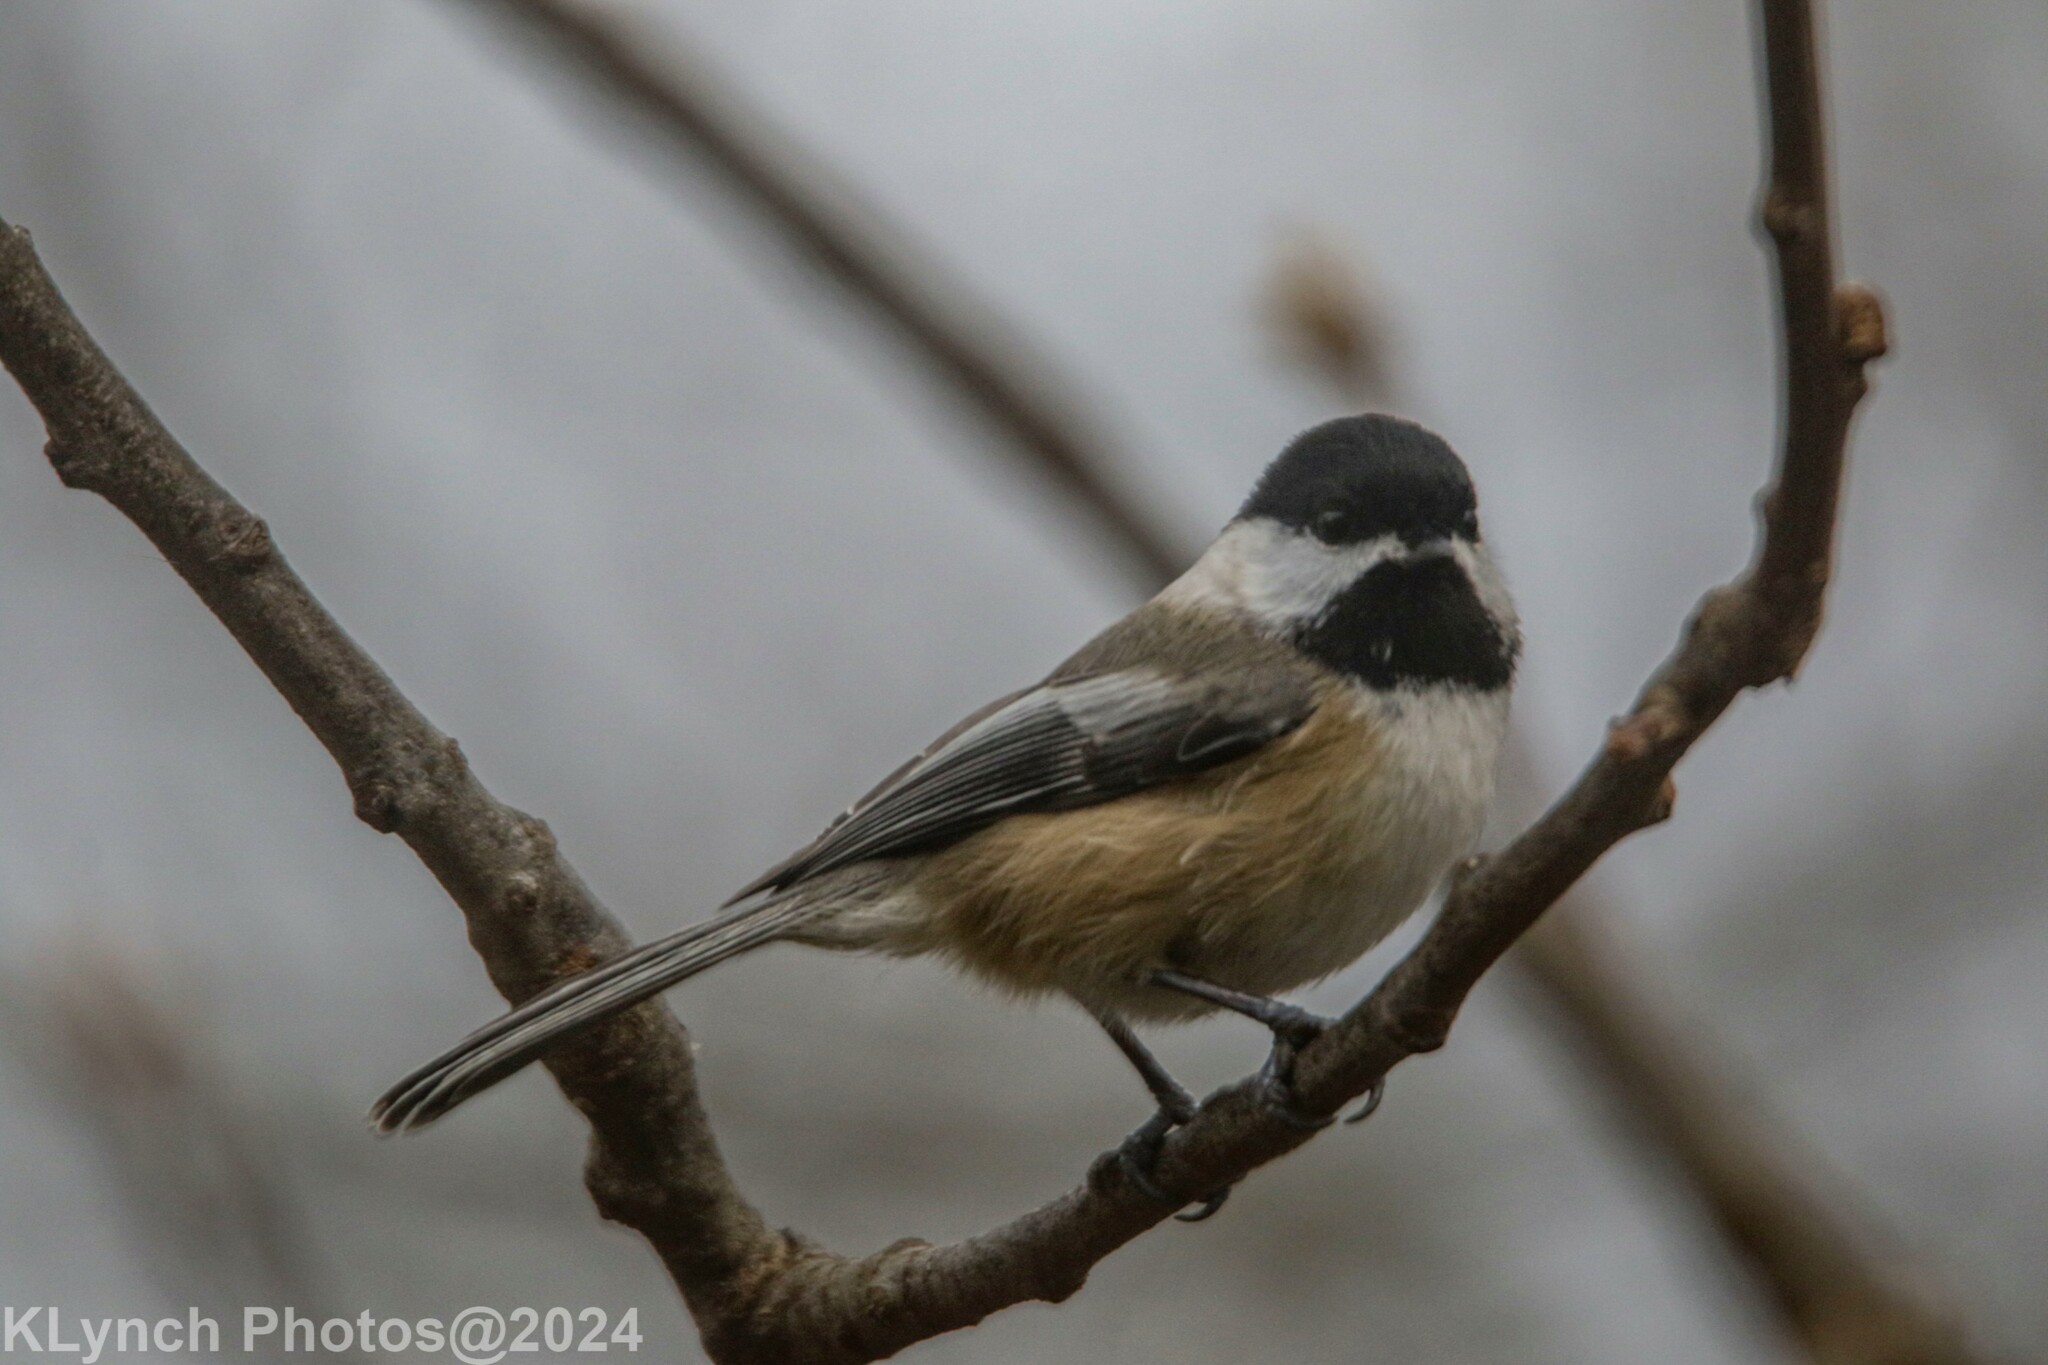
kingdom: Animalia
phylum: Chordata
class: Aves
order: Passeriformes
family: Paridae
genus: Poecile
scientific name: Poecile atricapillus
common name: Black-capped chickadee
